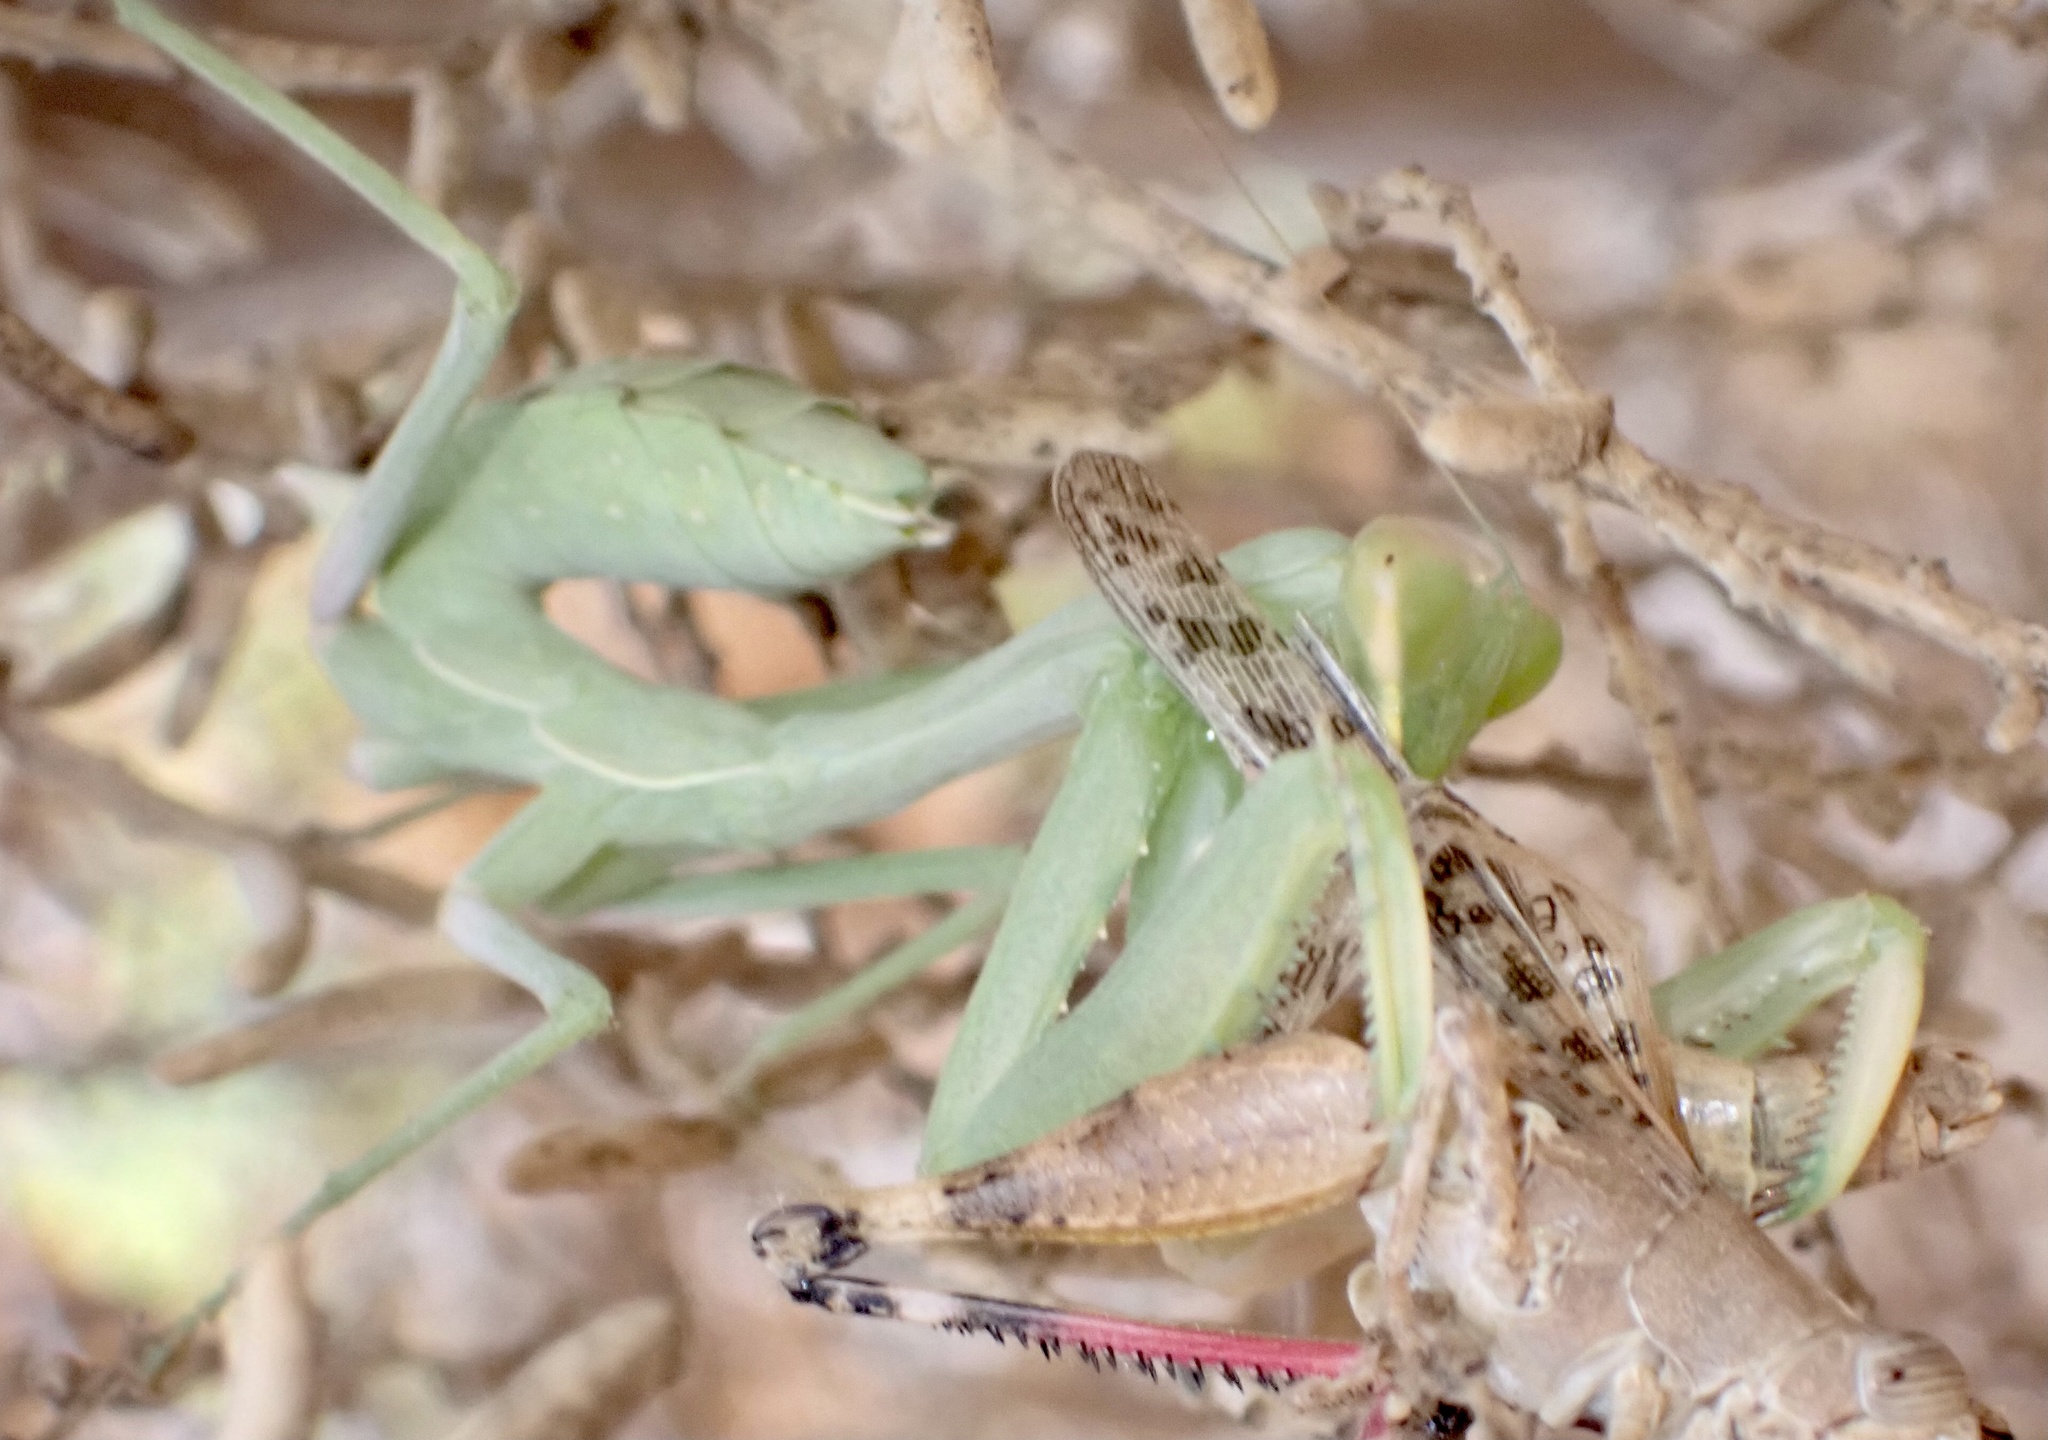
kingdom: Animalia
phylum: Arthropoda
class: Insecta
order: Mantodea
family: Mantidae
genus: Sphodromantis
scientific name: Sphodromantis viridis
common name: Giant african mantis
